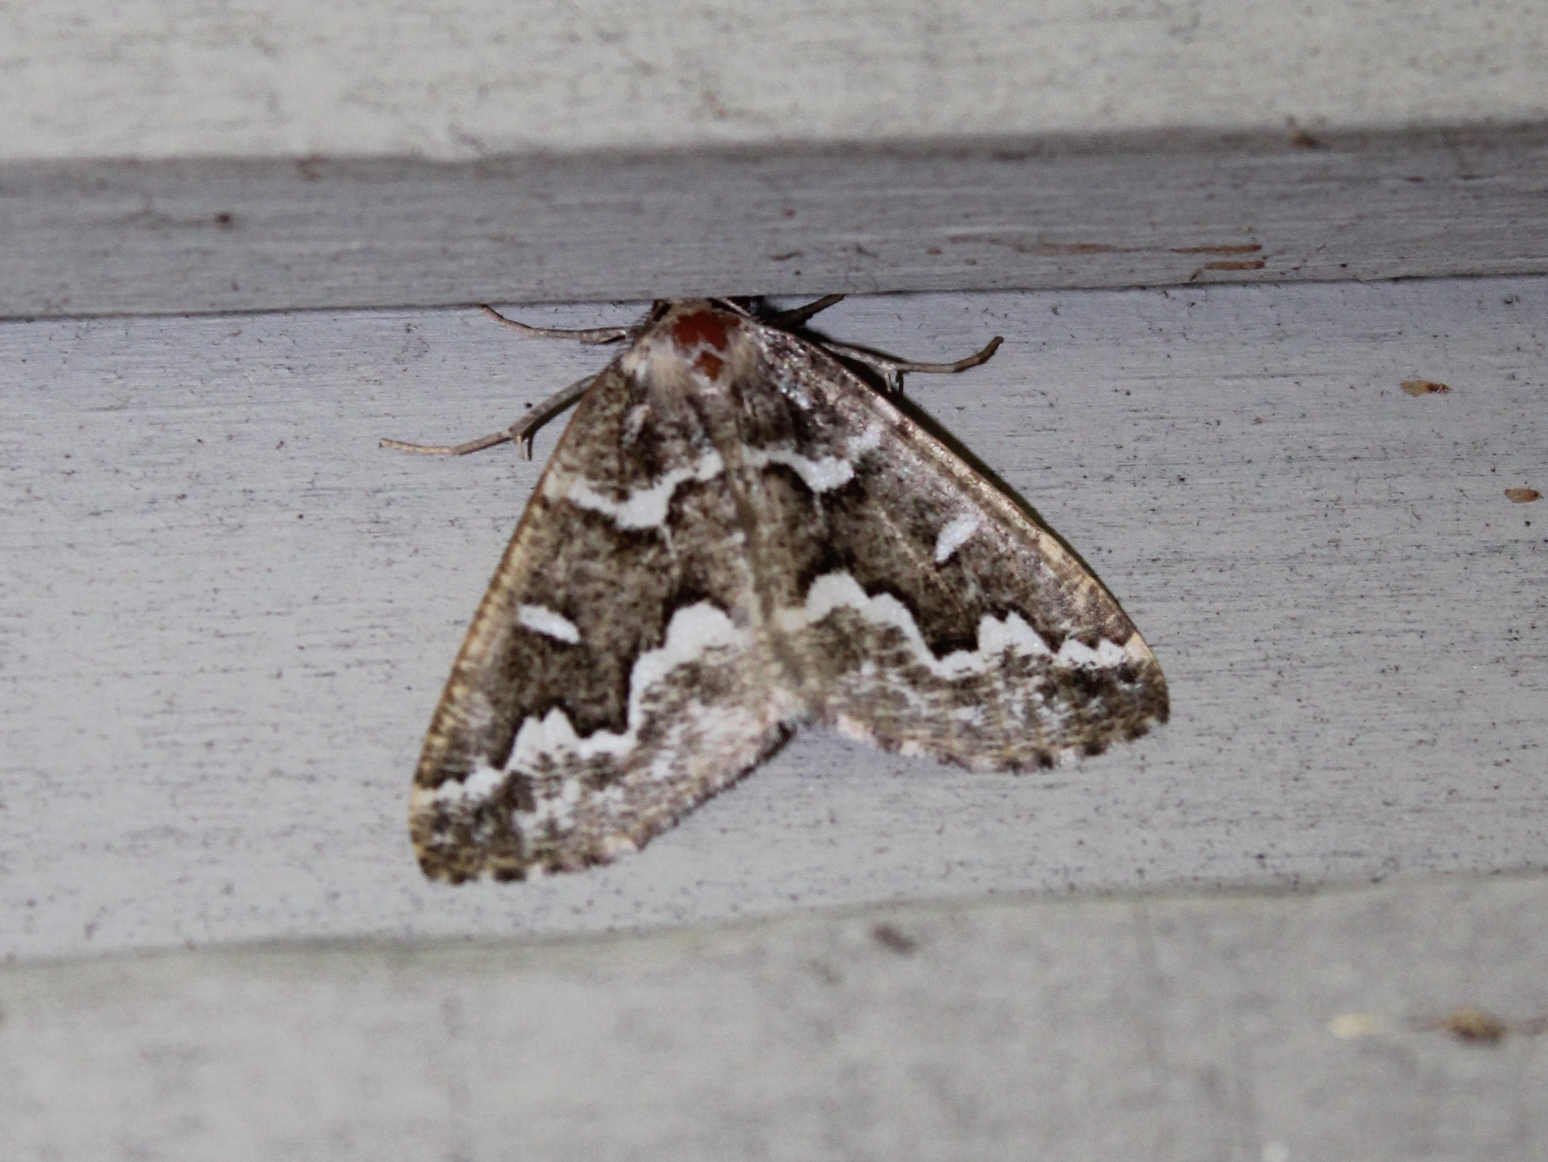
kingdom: Animalia
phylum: Arthropoda
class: Insecta
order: Lepidoptera
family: Geometridae
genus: Caripeta
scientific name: Caripeta divisata
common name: Gray spruce looper
